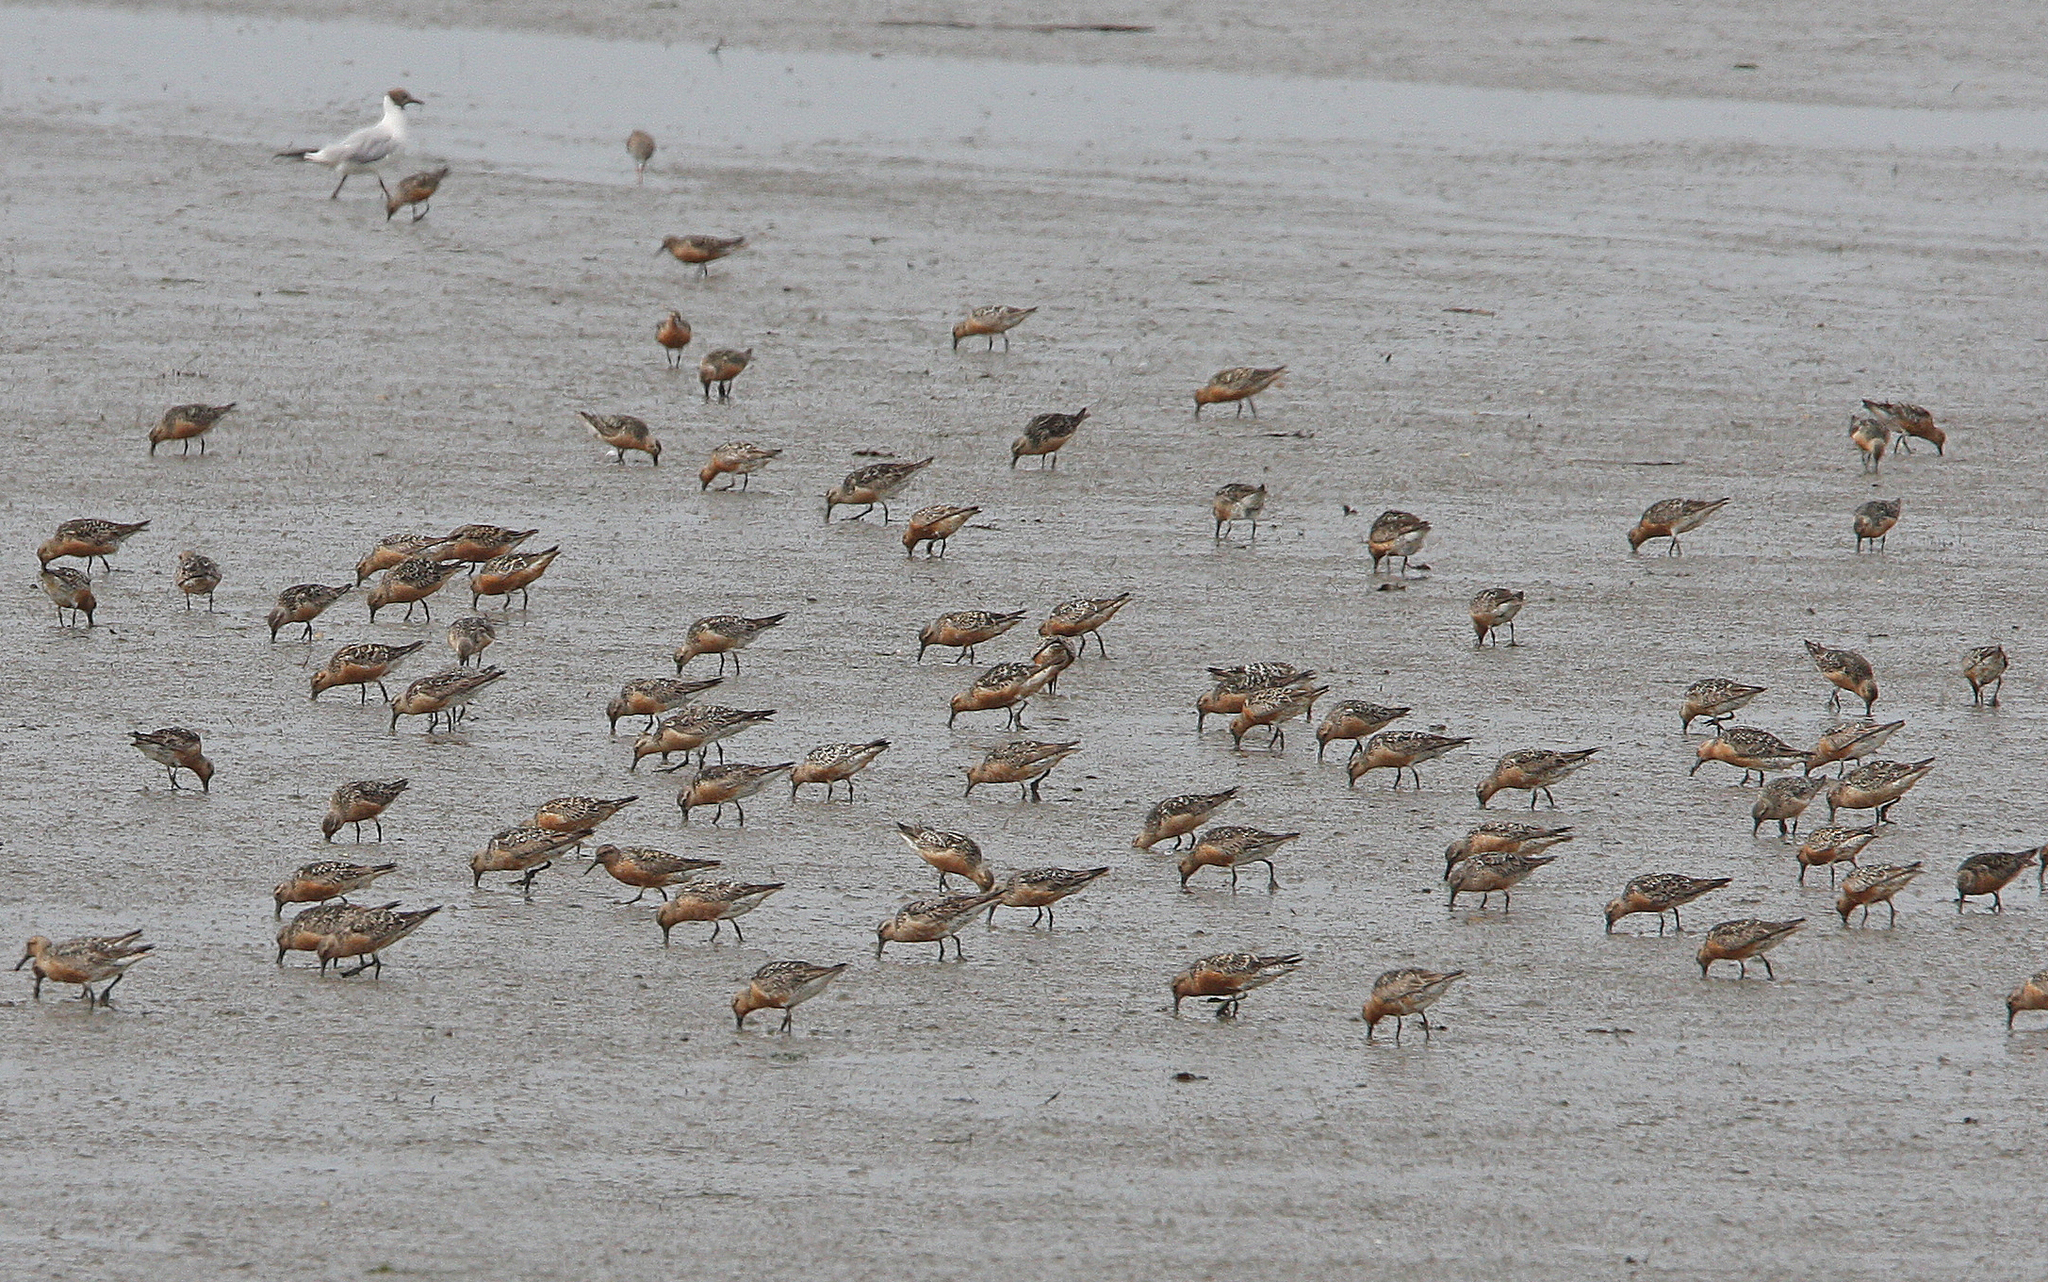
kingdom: Animalia
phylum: Chordata
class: Aves
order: Charadriiformes
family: Scolopacidae
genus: Calidris
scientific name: Calidris canutus
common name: Red knot
